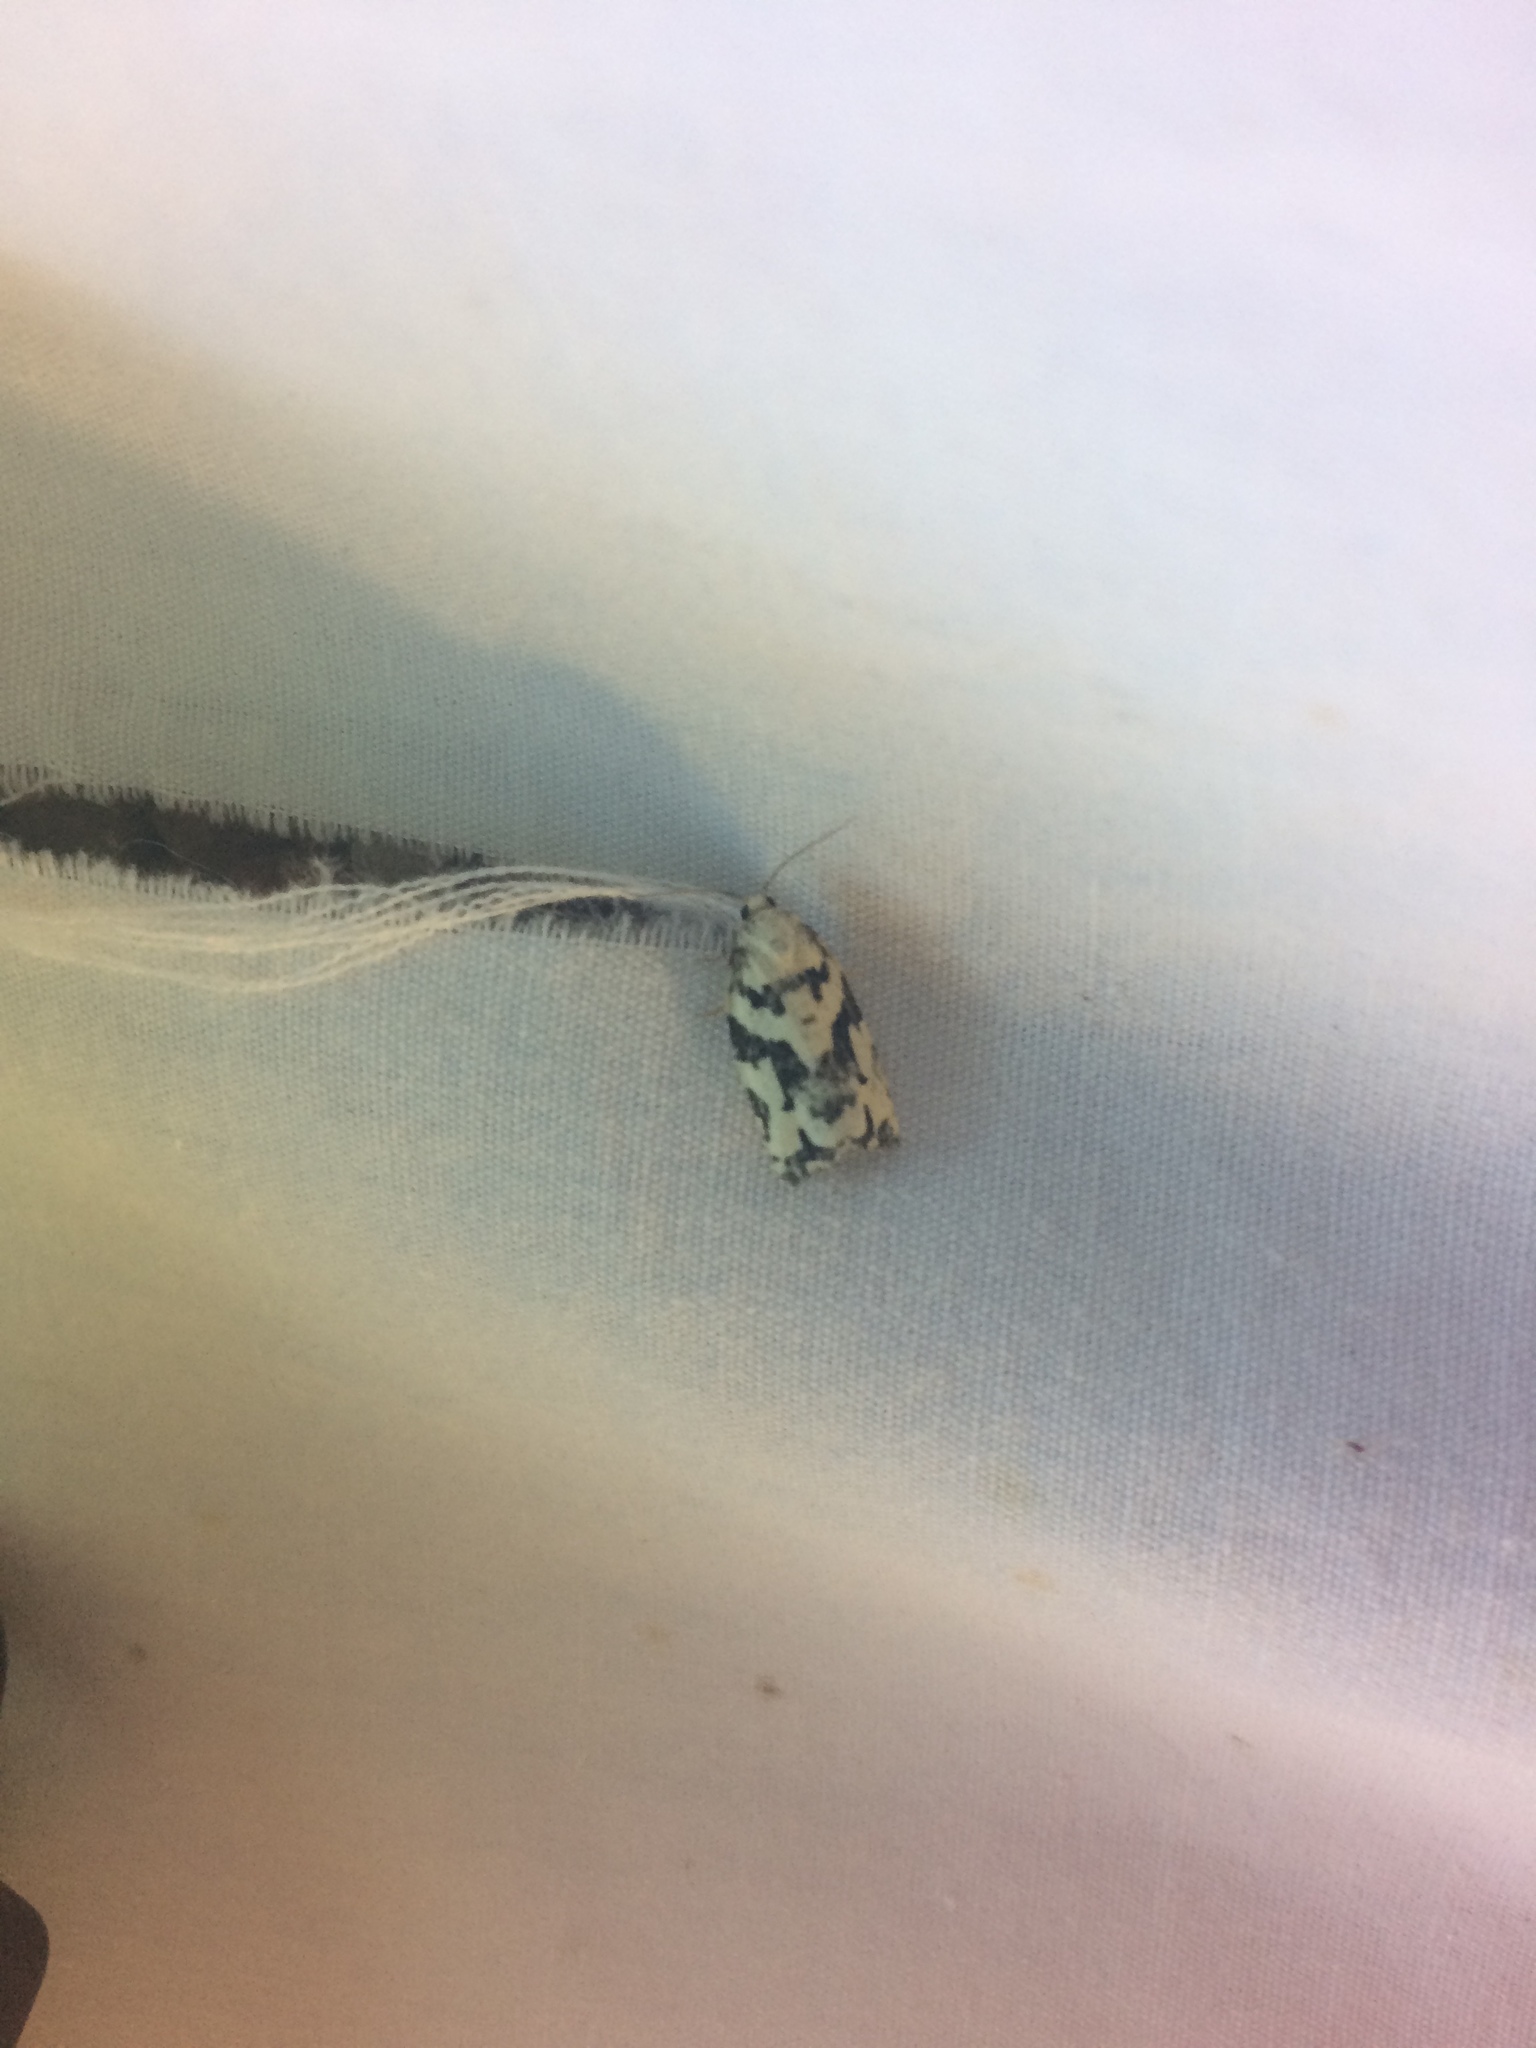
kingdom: Animalia
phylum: Arthropoda
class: Insecta
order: Lepidoptera
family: Tortricidae
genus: Archips
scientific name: Archips dissitana
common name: Boldly-marked archips moth
